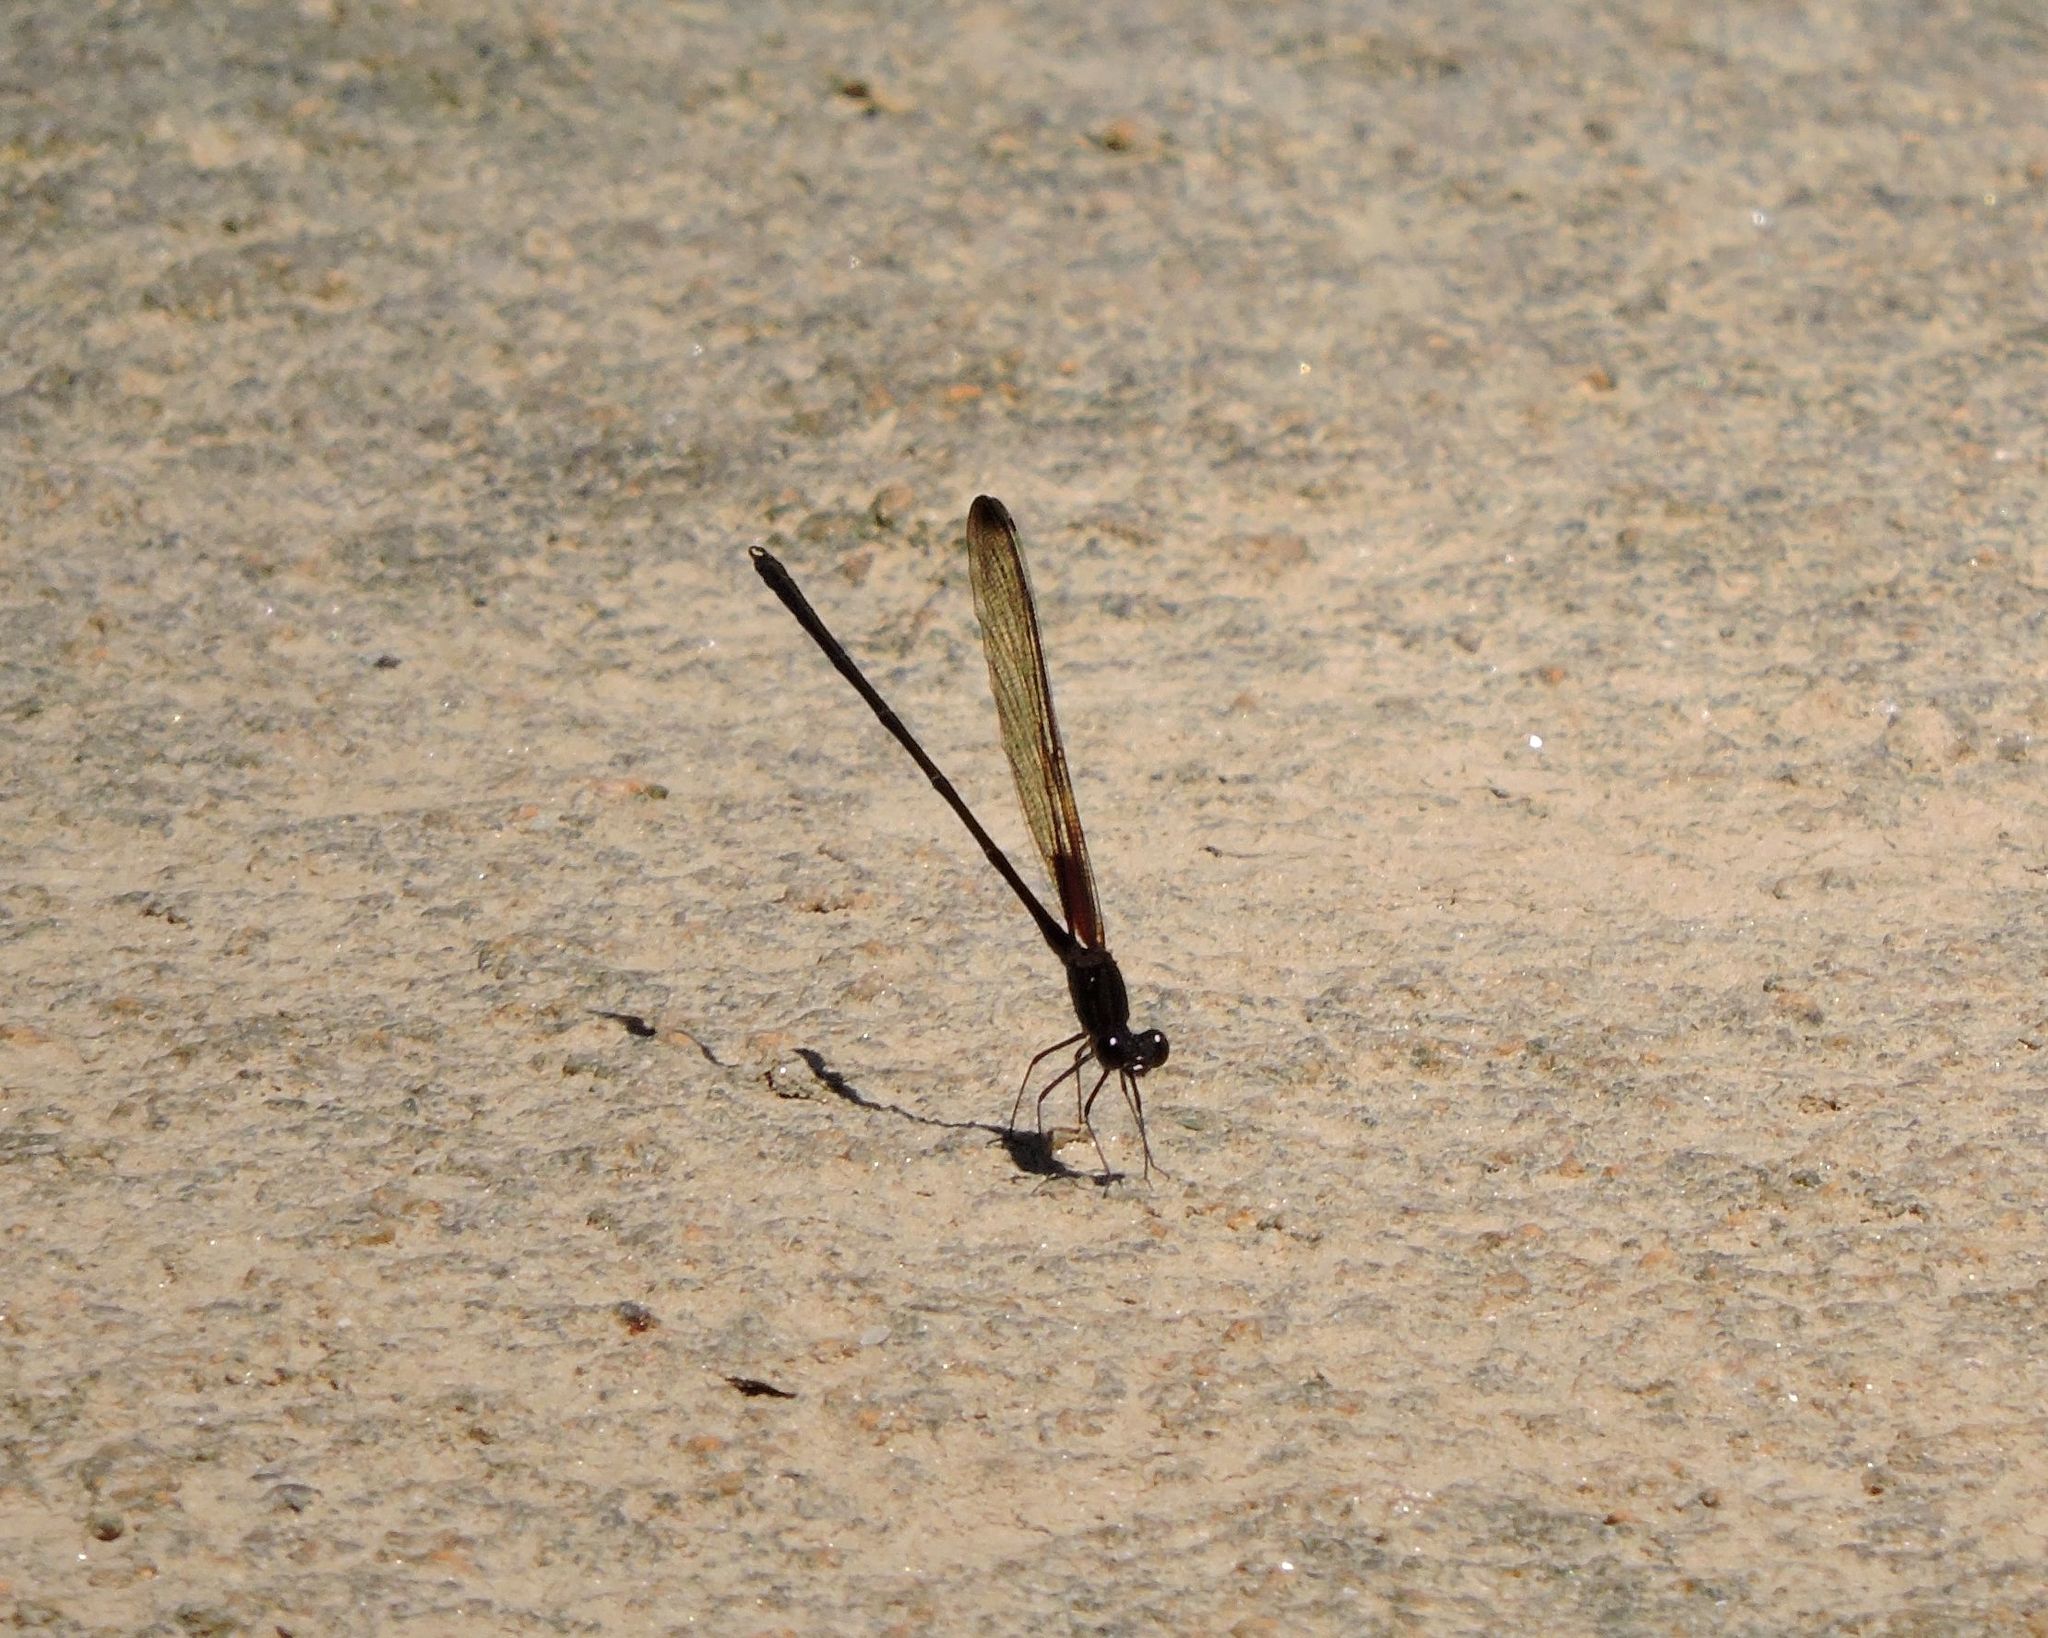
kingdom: Animalia
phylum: Arthropoda
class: Insecta
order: Odonata
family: Calopterygidae
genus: Hetaerina
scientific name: Hetaerina titia
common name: Smoky rubyspot
